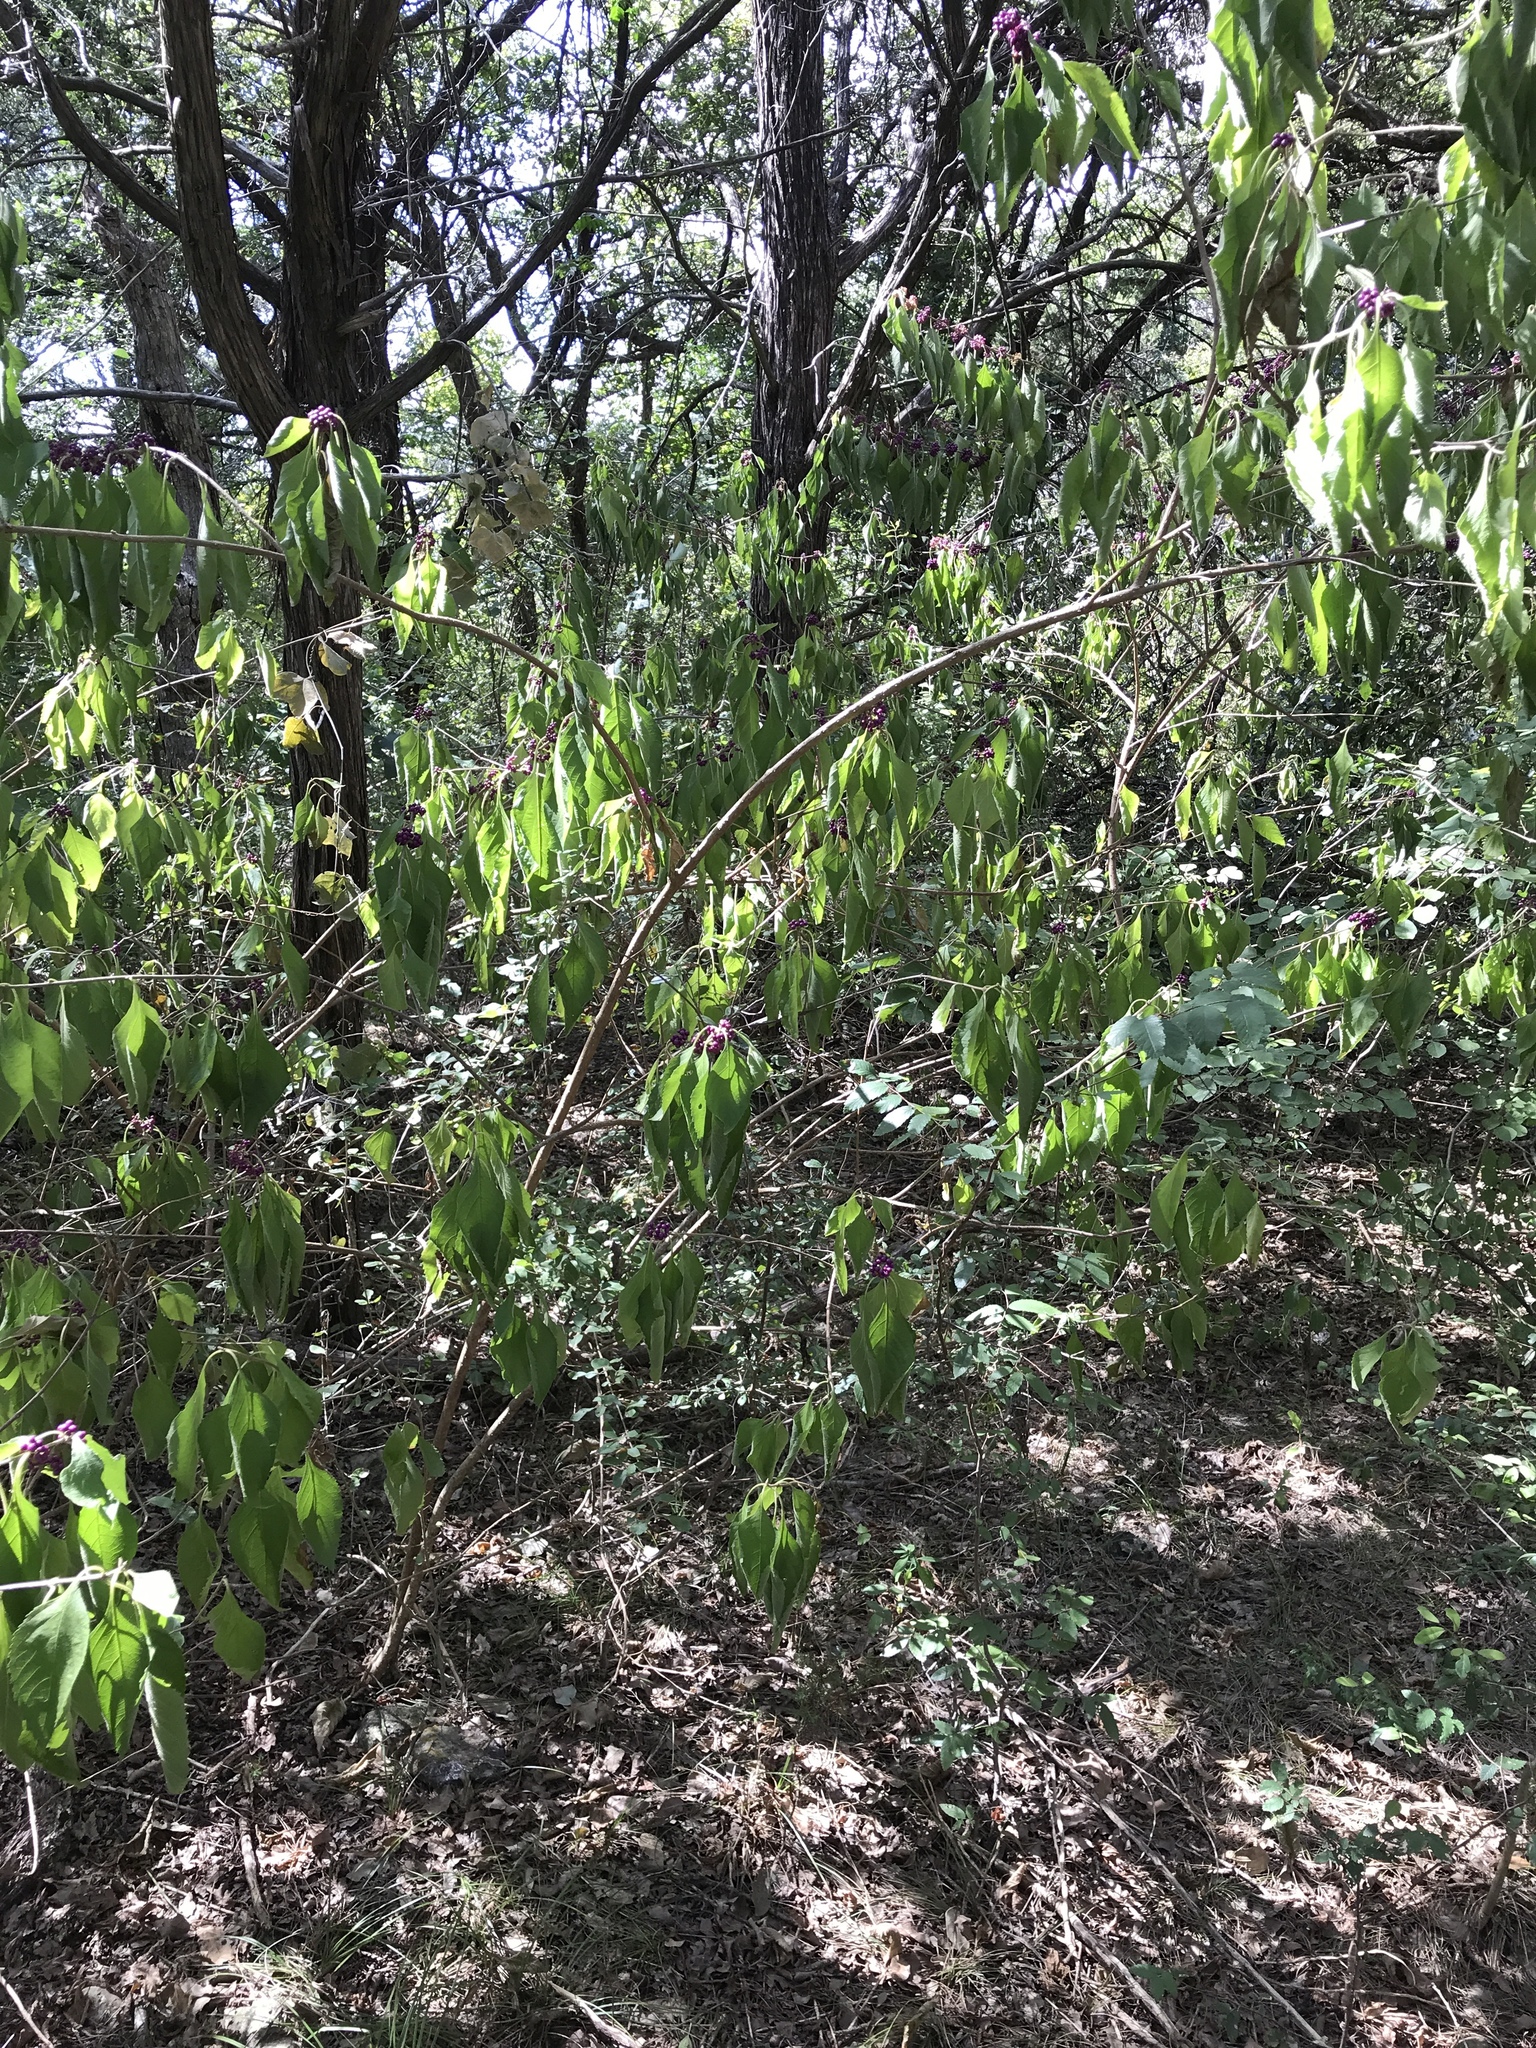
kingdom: Plantae
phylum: Tracheophyta
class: Magnoliopsida
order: Lamiales
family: Lamiaceae
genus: Callicarpa
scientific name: Callicarpa americana
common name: American beautyberry
